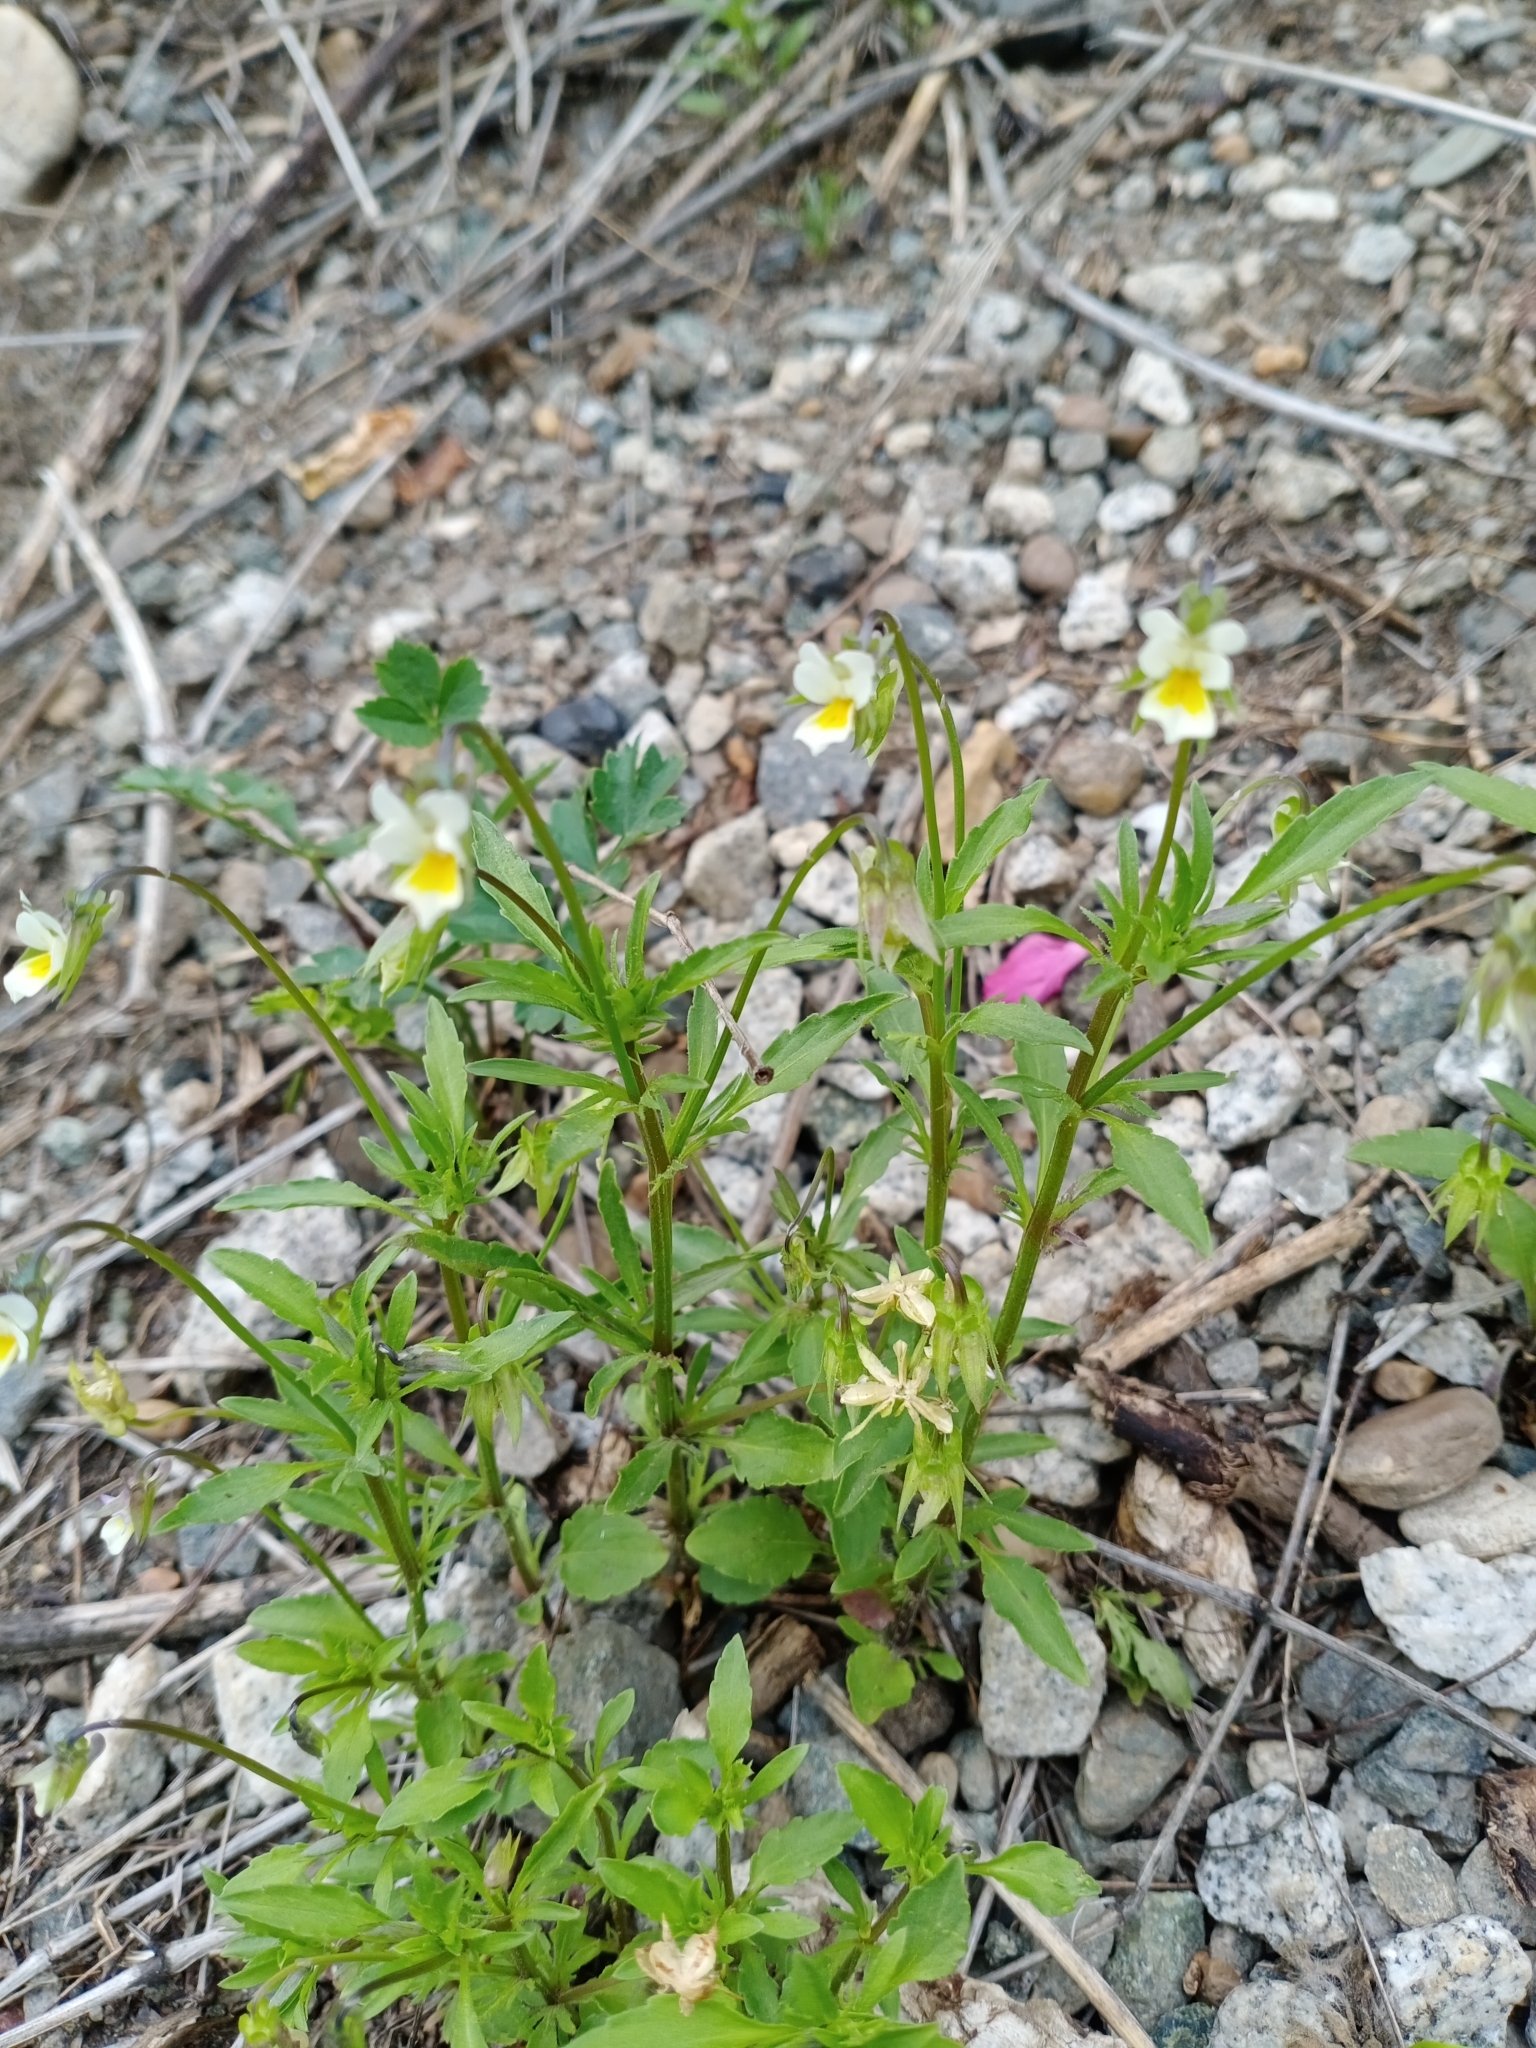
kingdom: Plantae
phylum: Tracheophyta
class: Magnoliopsida
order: Malpighiales
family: Violaceae
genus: Viola
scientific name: Viola arvensis
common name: Field pansy
